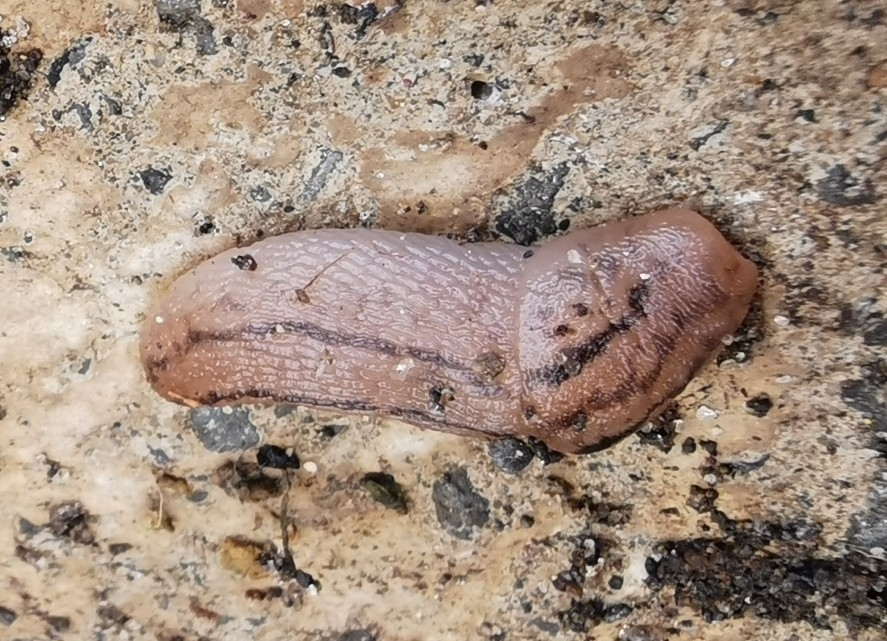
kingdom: Animalia
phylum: Mollusca
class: Gastropoda
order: Stylommatophora
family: Limacidae
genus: Ambigolimax
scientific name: Ambigolimax
